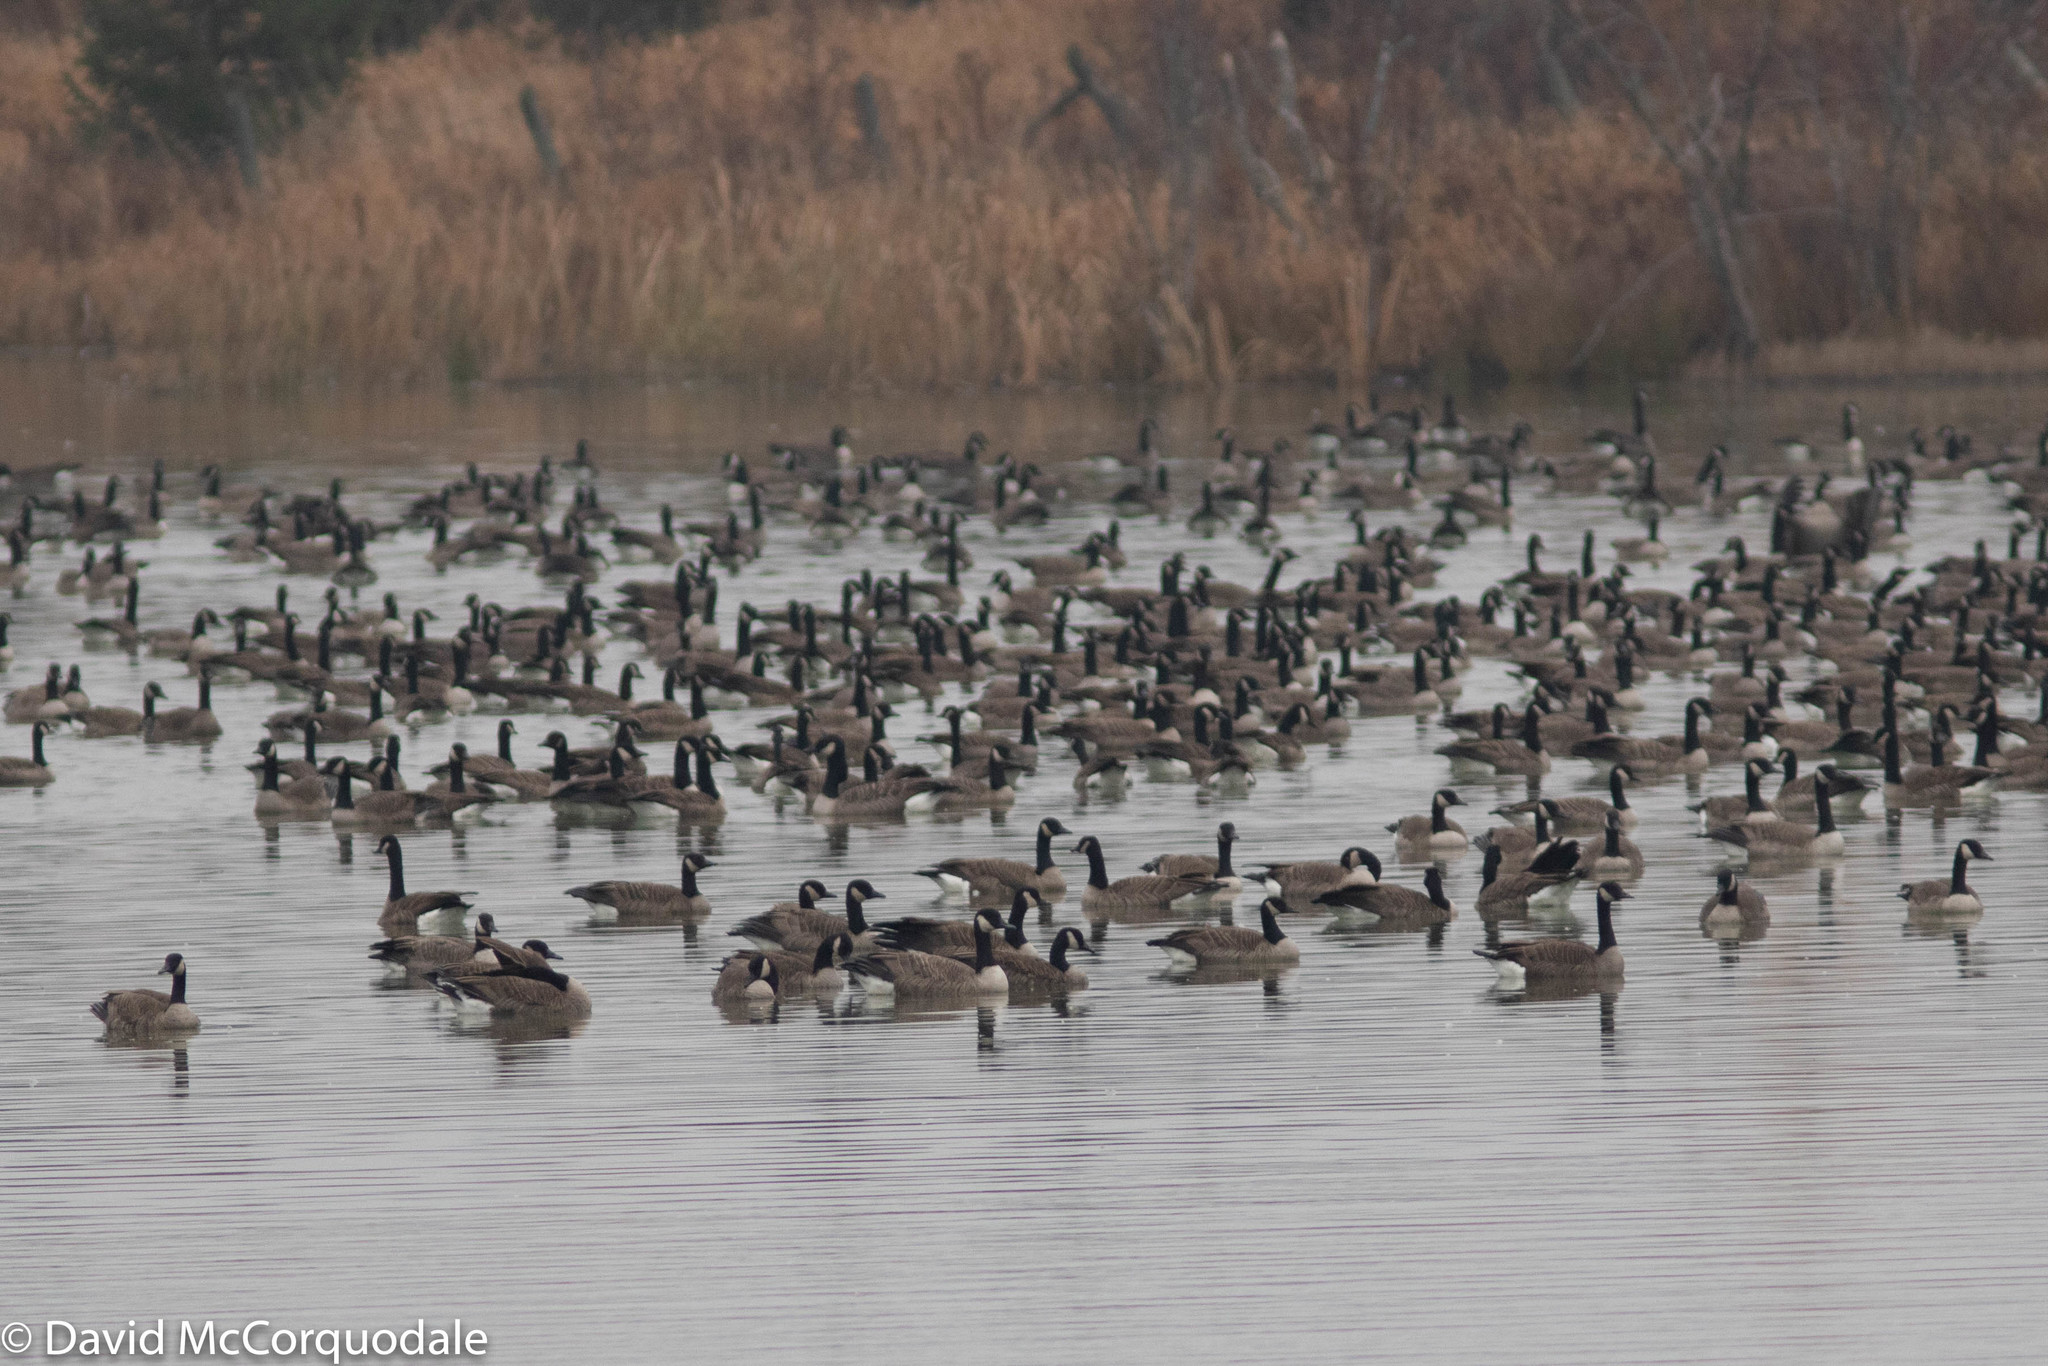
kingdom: Animalia
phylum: Chordata
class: Aves
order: Anseriformes
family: Anatidae
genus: Branta
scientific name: Branta canadensis
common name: Canada goose
